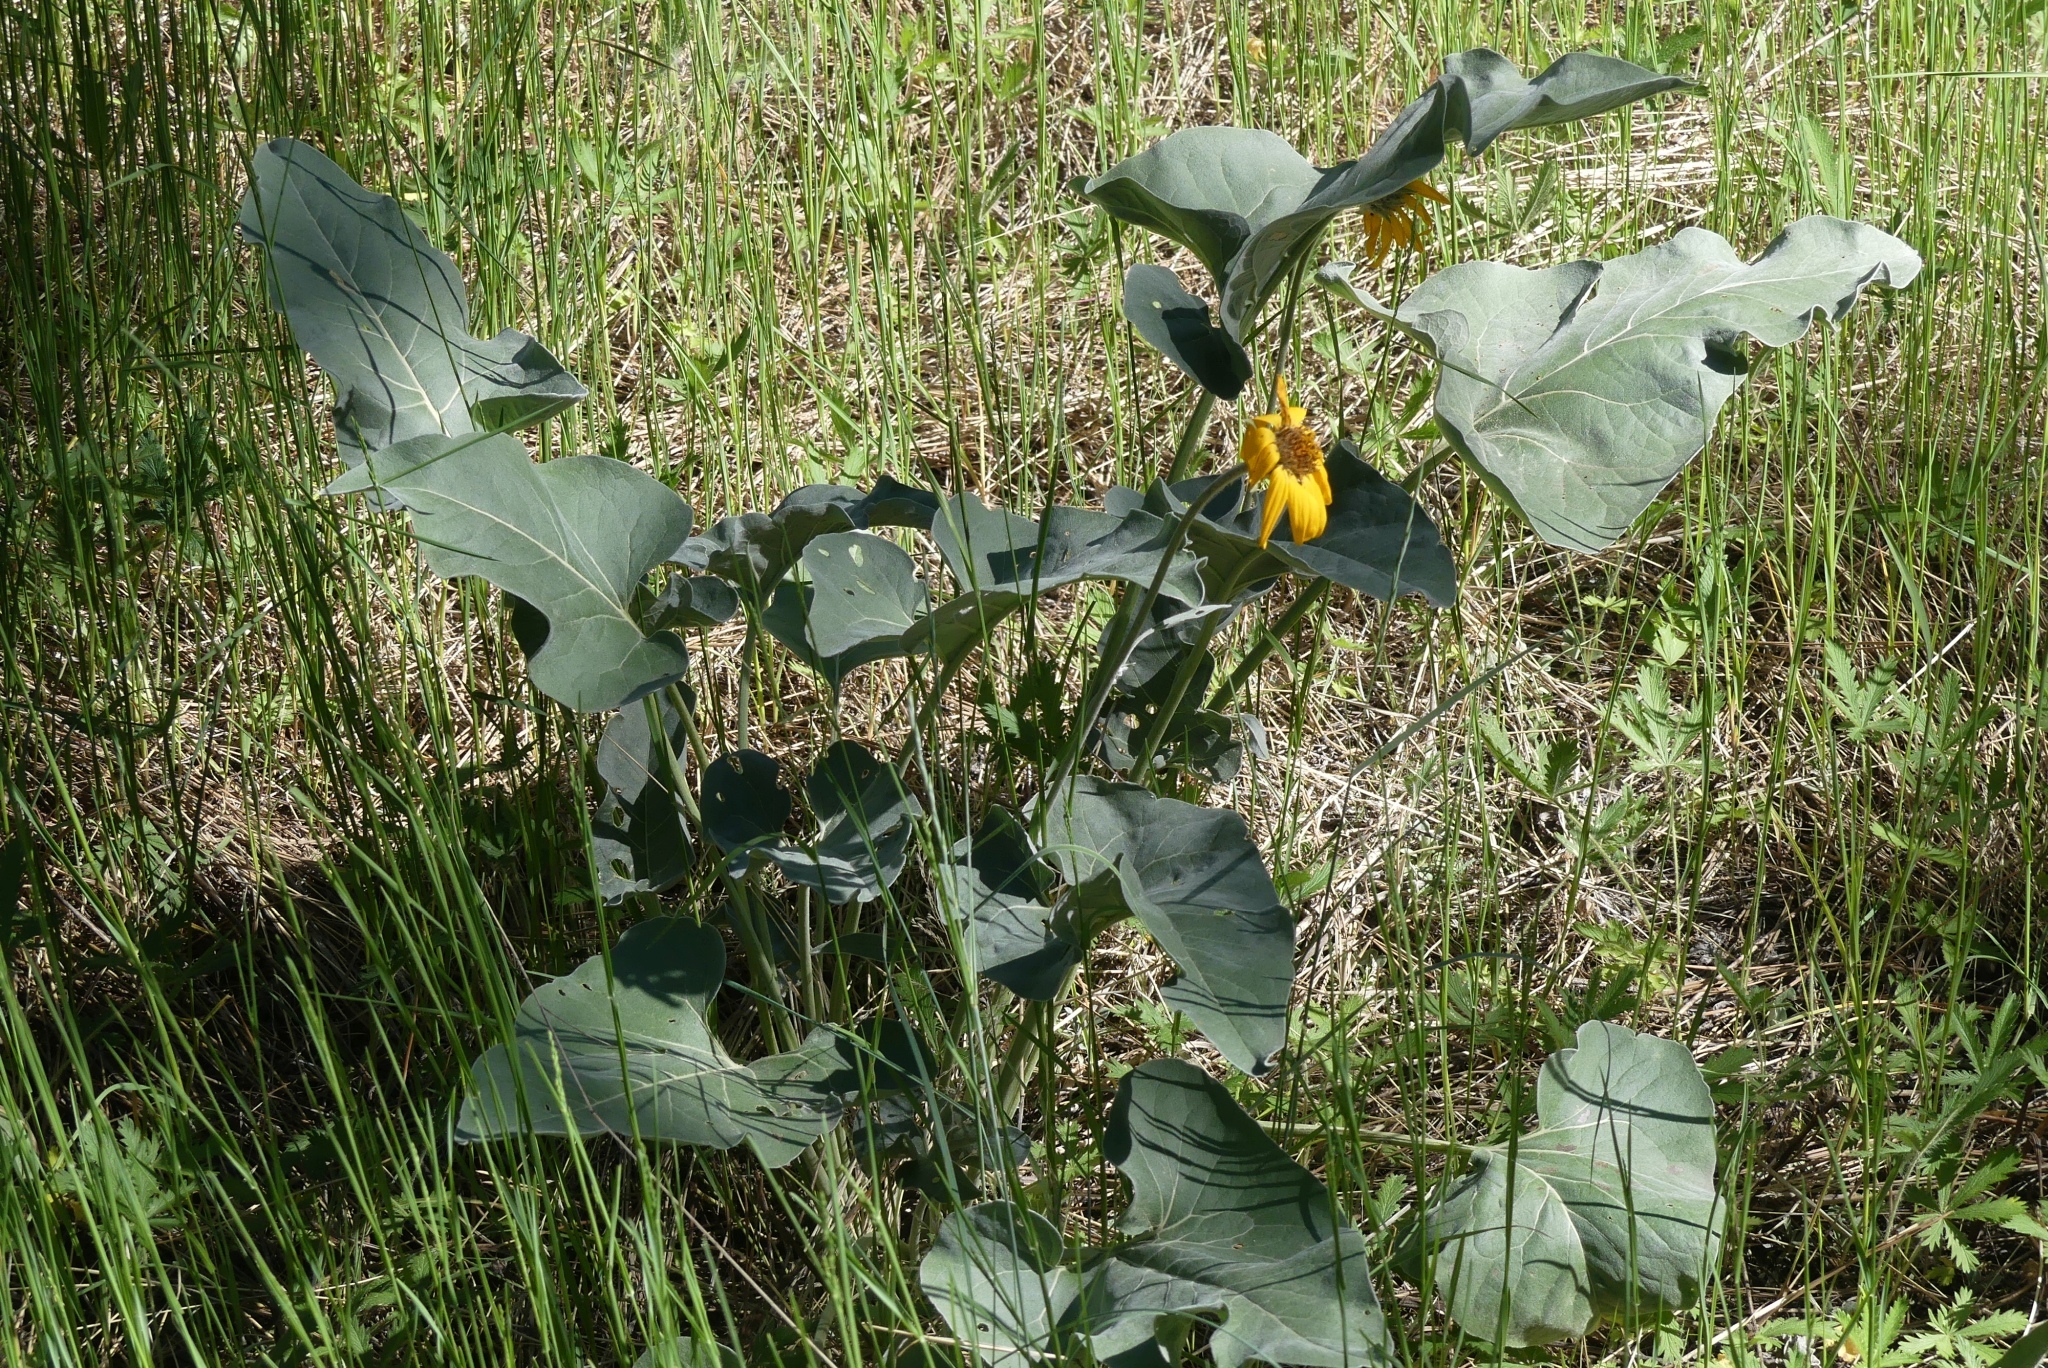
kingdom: Plantae
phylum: Tracheophyta
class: Magnoliopsida
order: Asterales
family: Asteraceae
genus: Wyethia
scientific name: Wyethia sagittata
